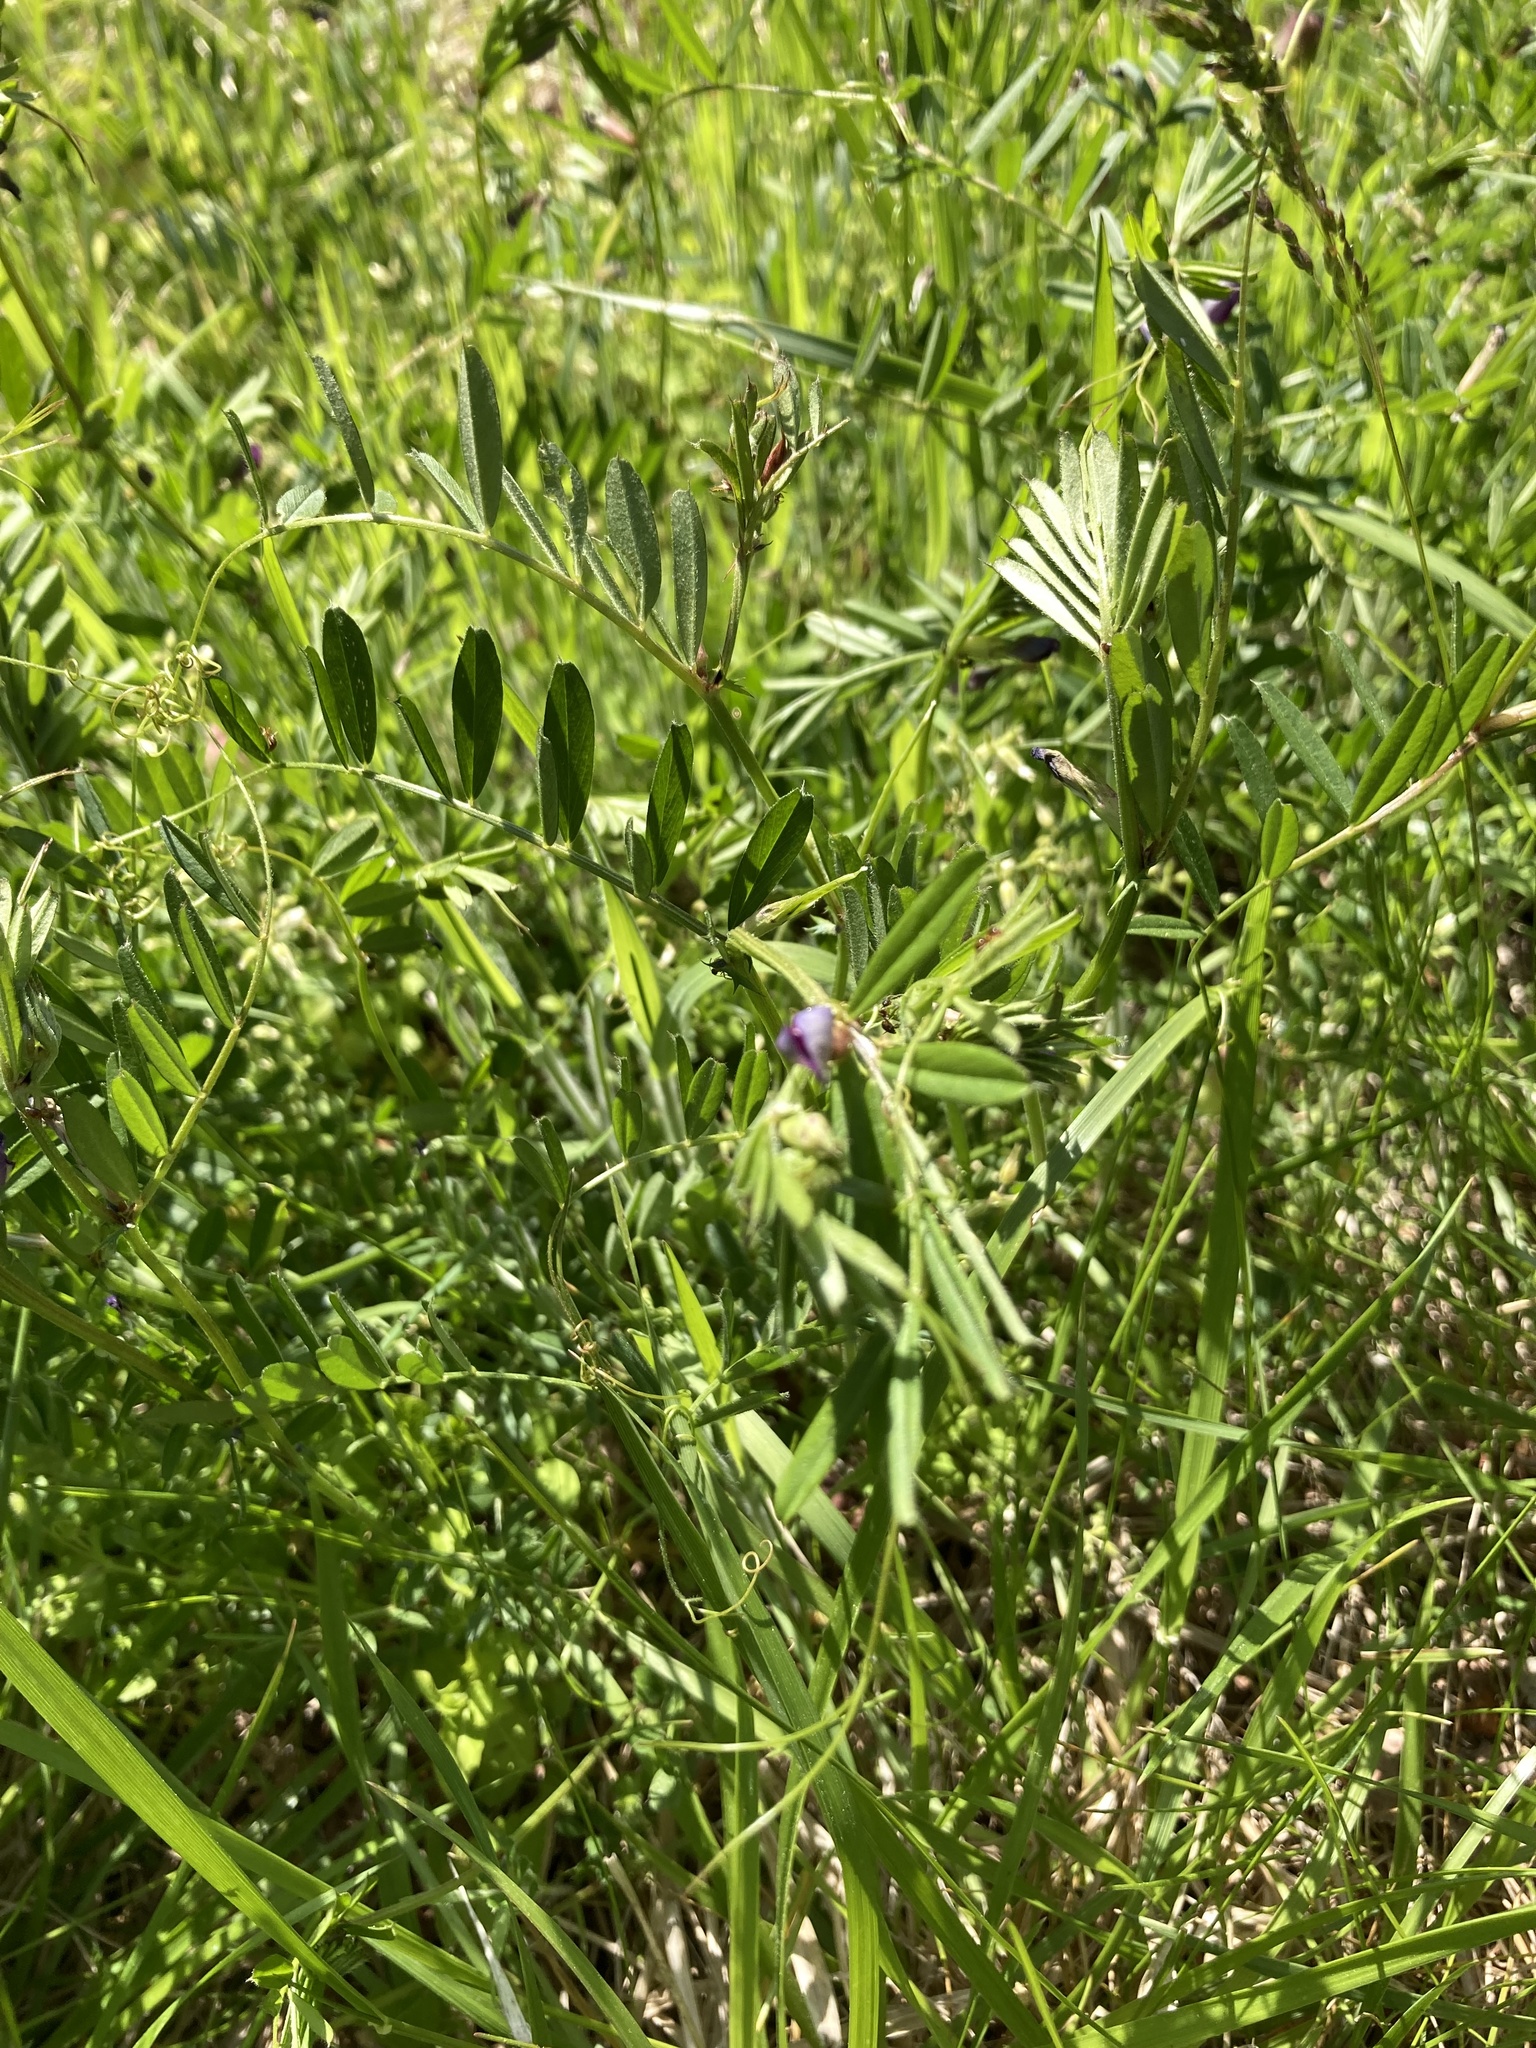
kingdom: Plantae
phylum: Tracheophyta
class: Magnoliopsida
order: Fabales
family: Fabaceae
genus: Vicia
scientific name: Vicia sativa
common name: Garden vetch
